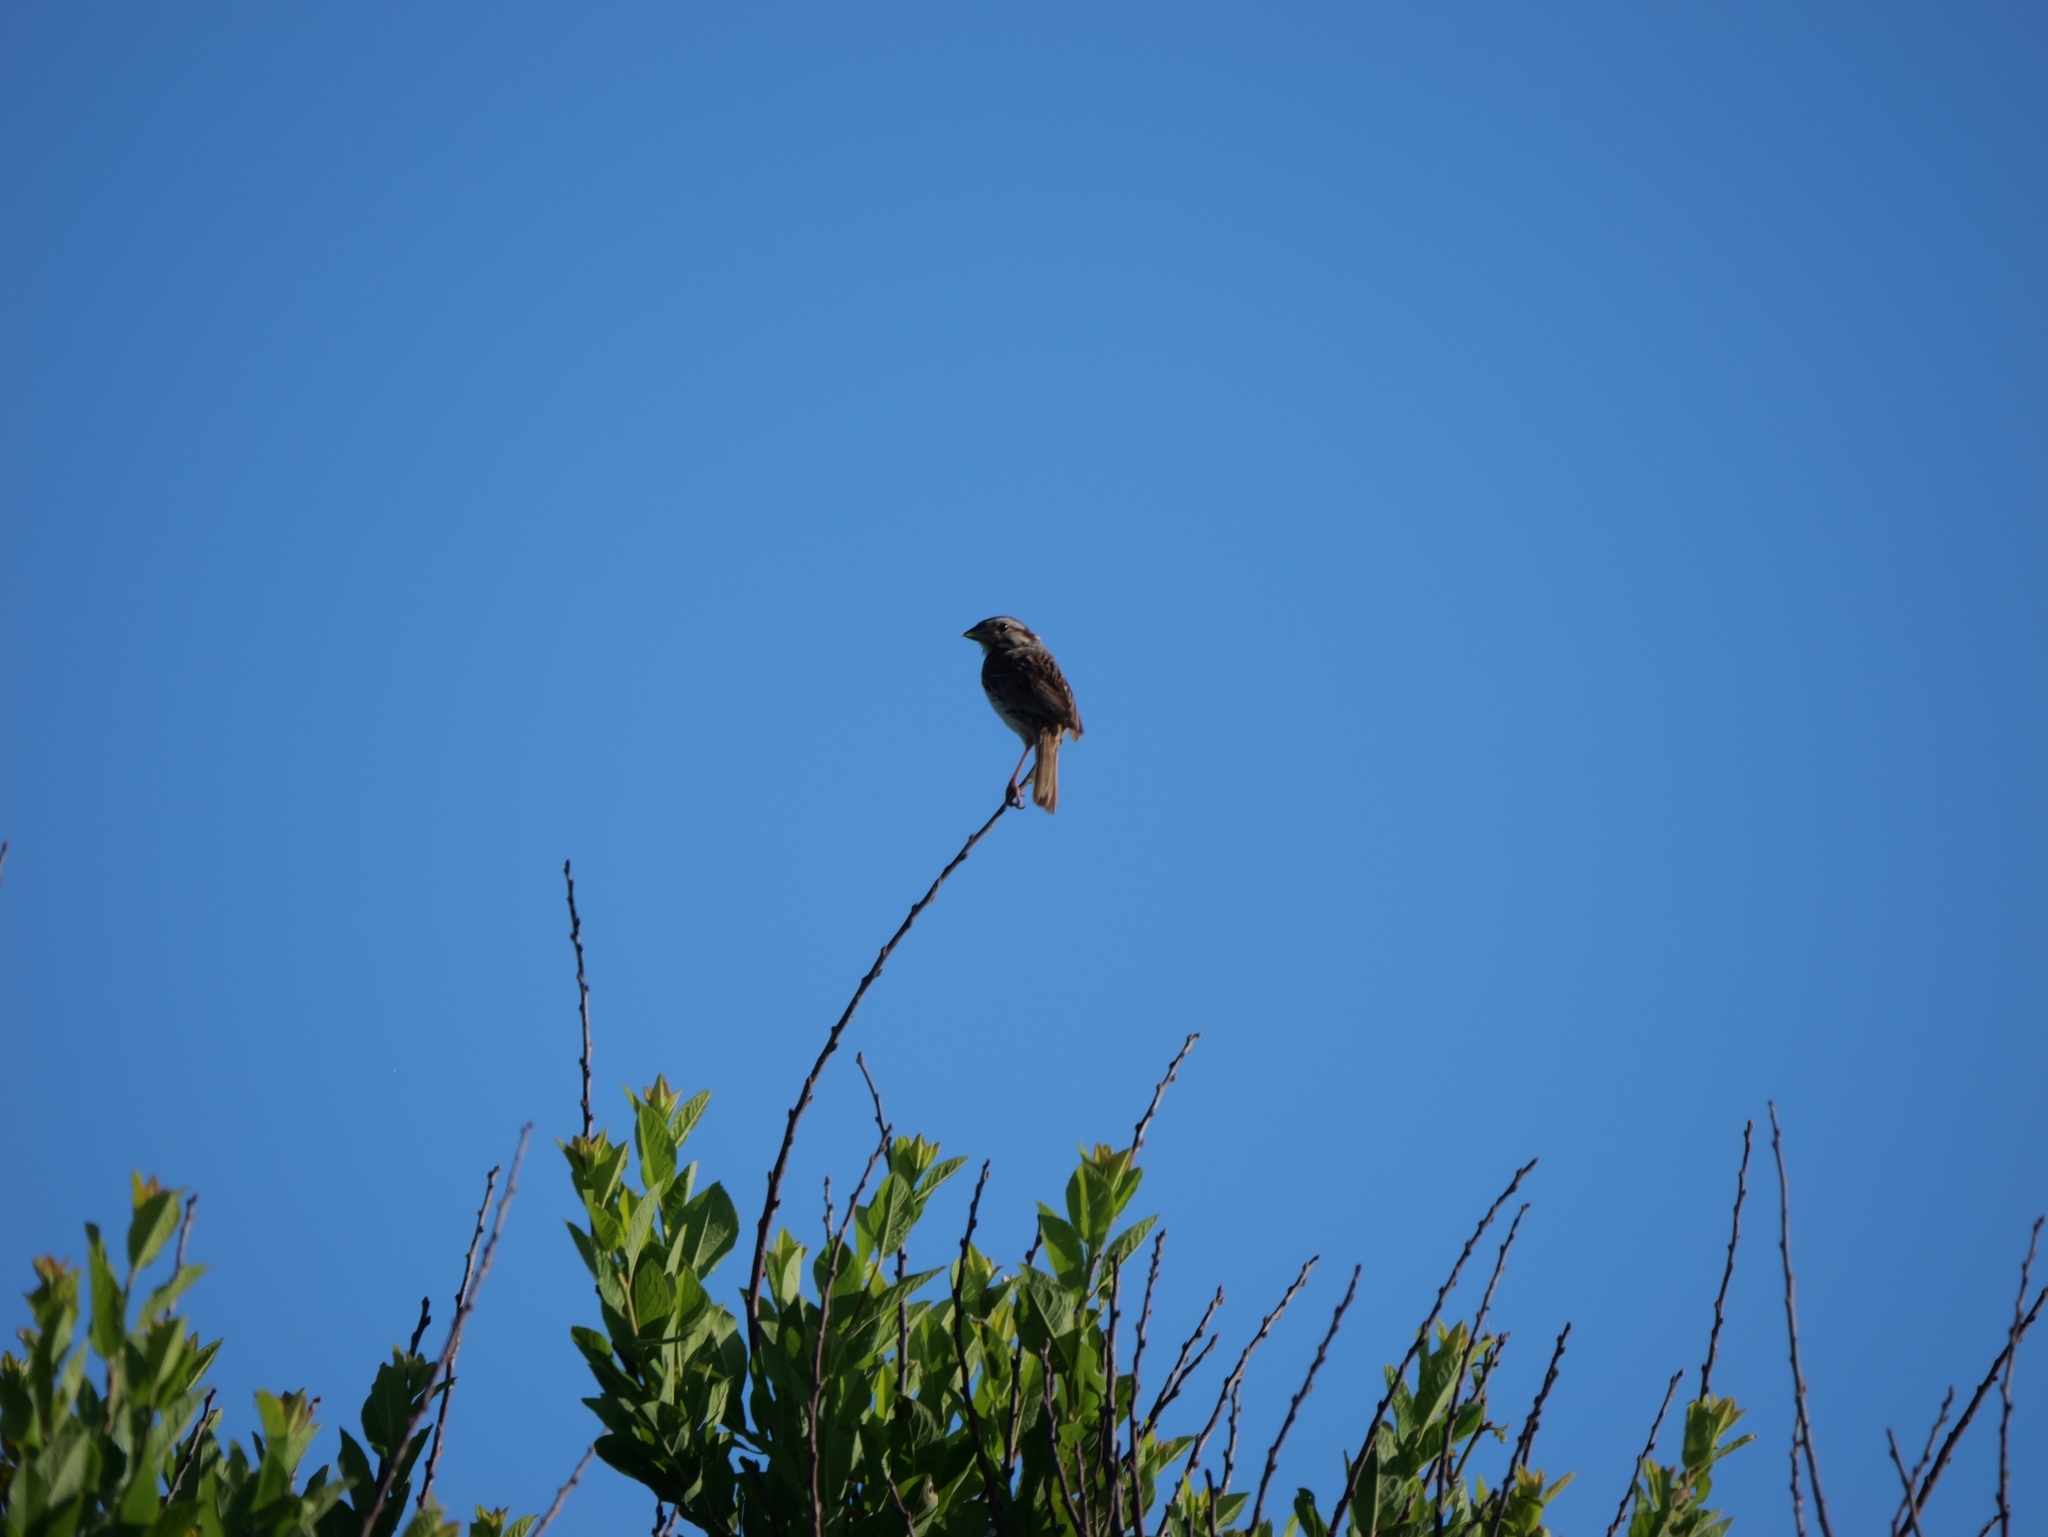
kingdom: Animalia
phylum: Chordata
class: Aves
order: Passeriformes
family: Passerellidae
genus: Melospiza
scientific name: Melospiza melodia
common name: Song sparrow
